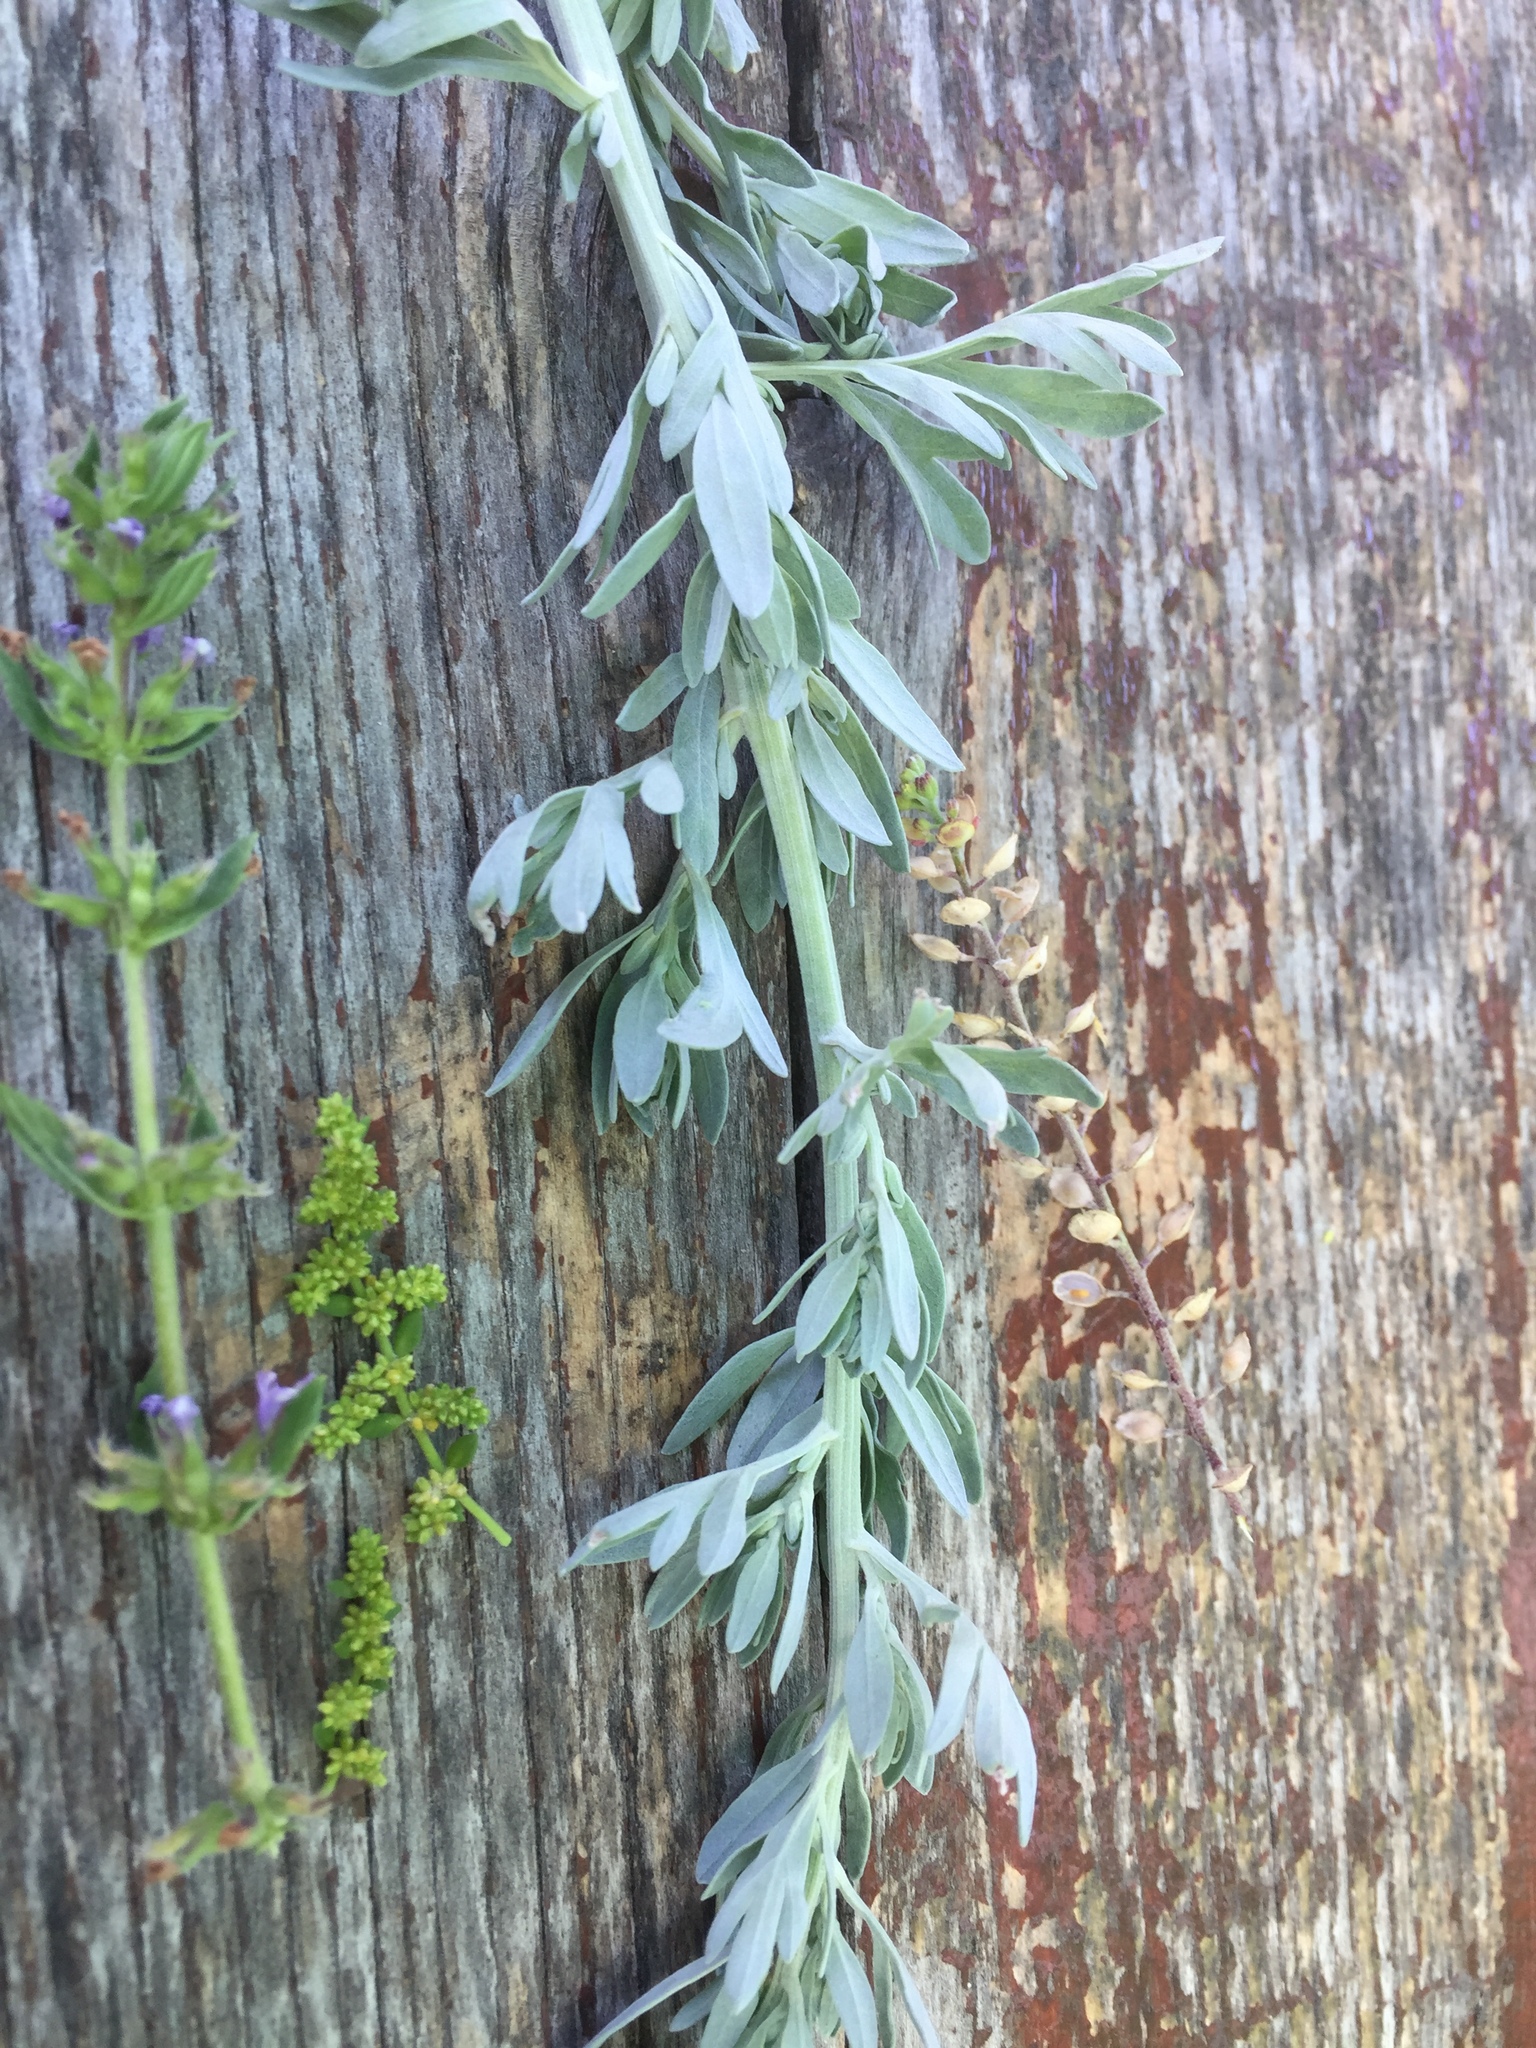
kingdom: Plantae
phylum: Tracheophyta
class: Magnoliopsida
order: Asterales
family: Asteraceae
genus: Artemisia
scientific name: Artemisia absinthium
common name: Wormwood
